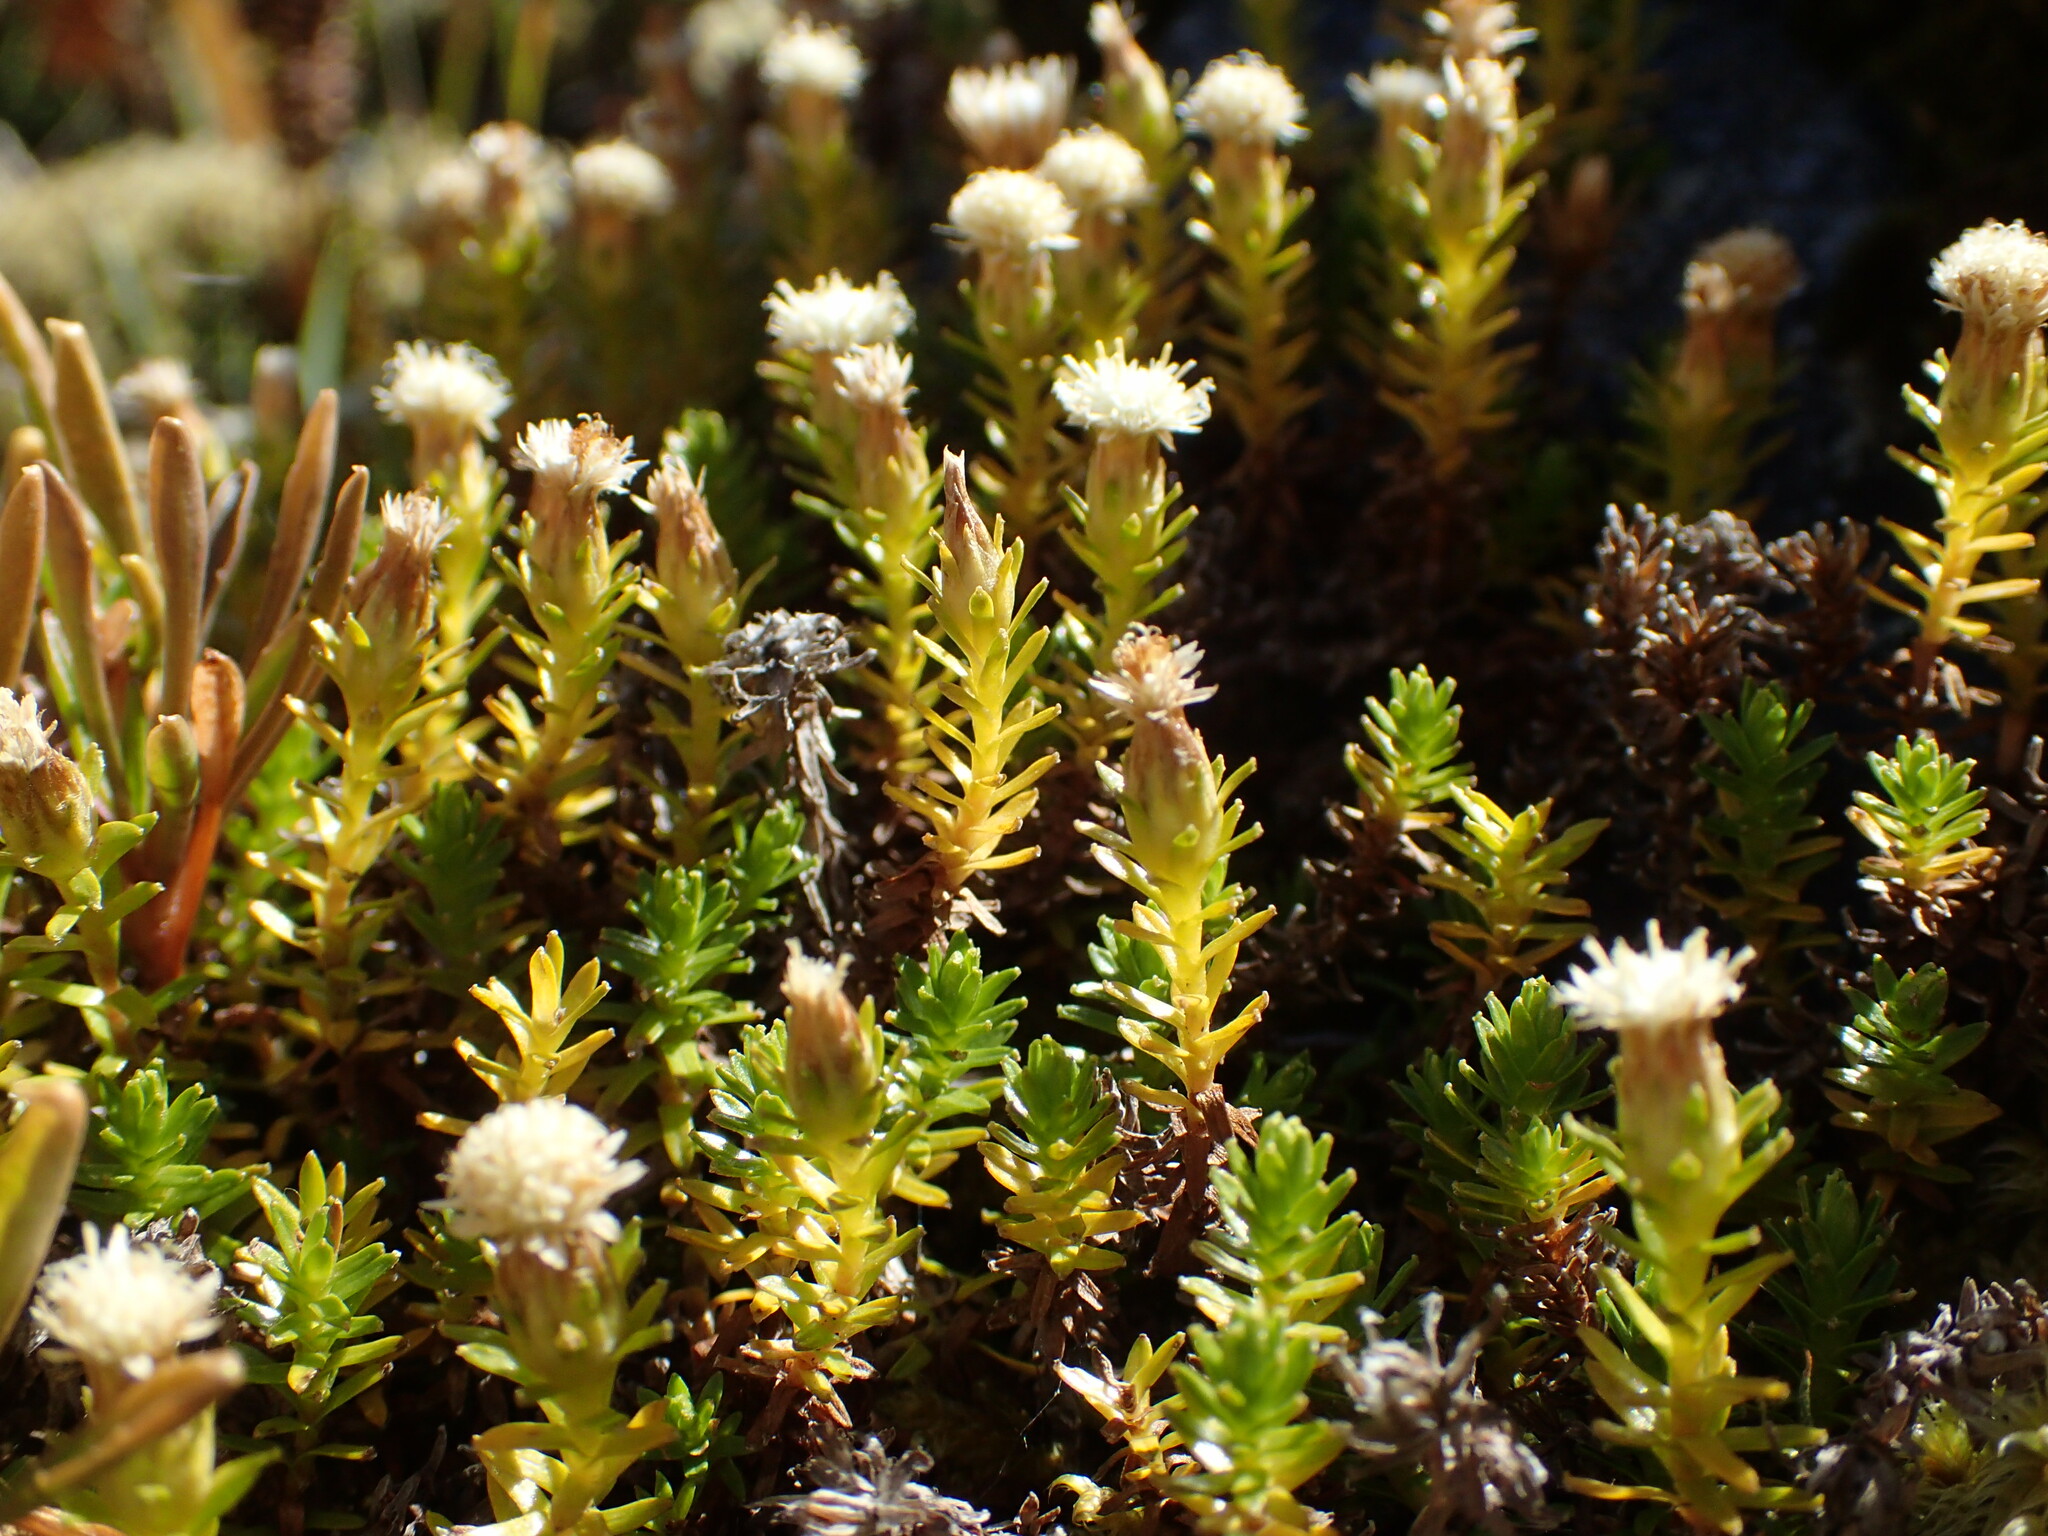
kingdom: Plantae
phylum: Tracheophyta
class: Magnoliopsida
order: Asterales
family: Asteraceae
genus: Raoulia
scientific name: Raoulia glabra
